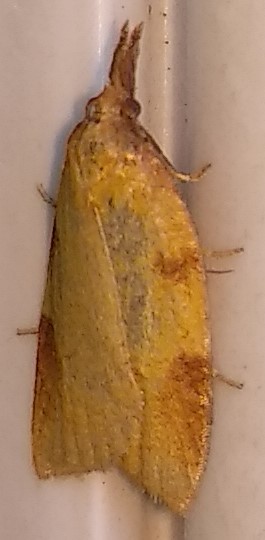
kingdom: Animalia
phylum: Arthropoda
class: Insecta
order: Lepidoptera
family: Tortricidae
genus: Sparganothis
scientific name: Sparganothis boweri
